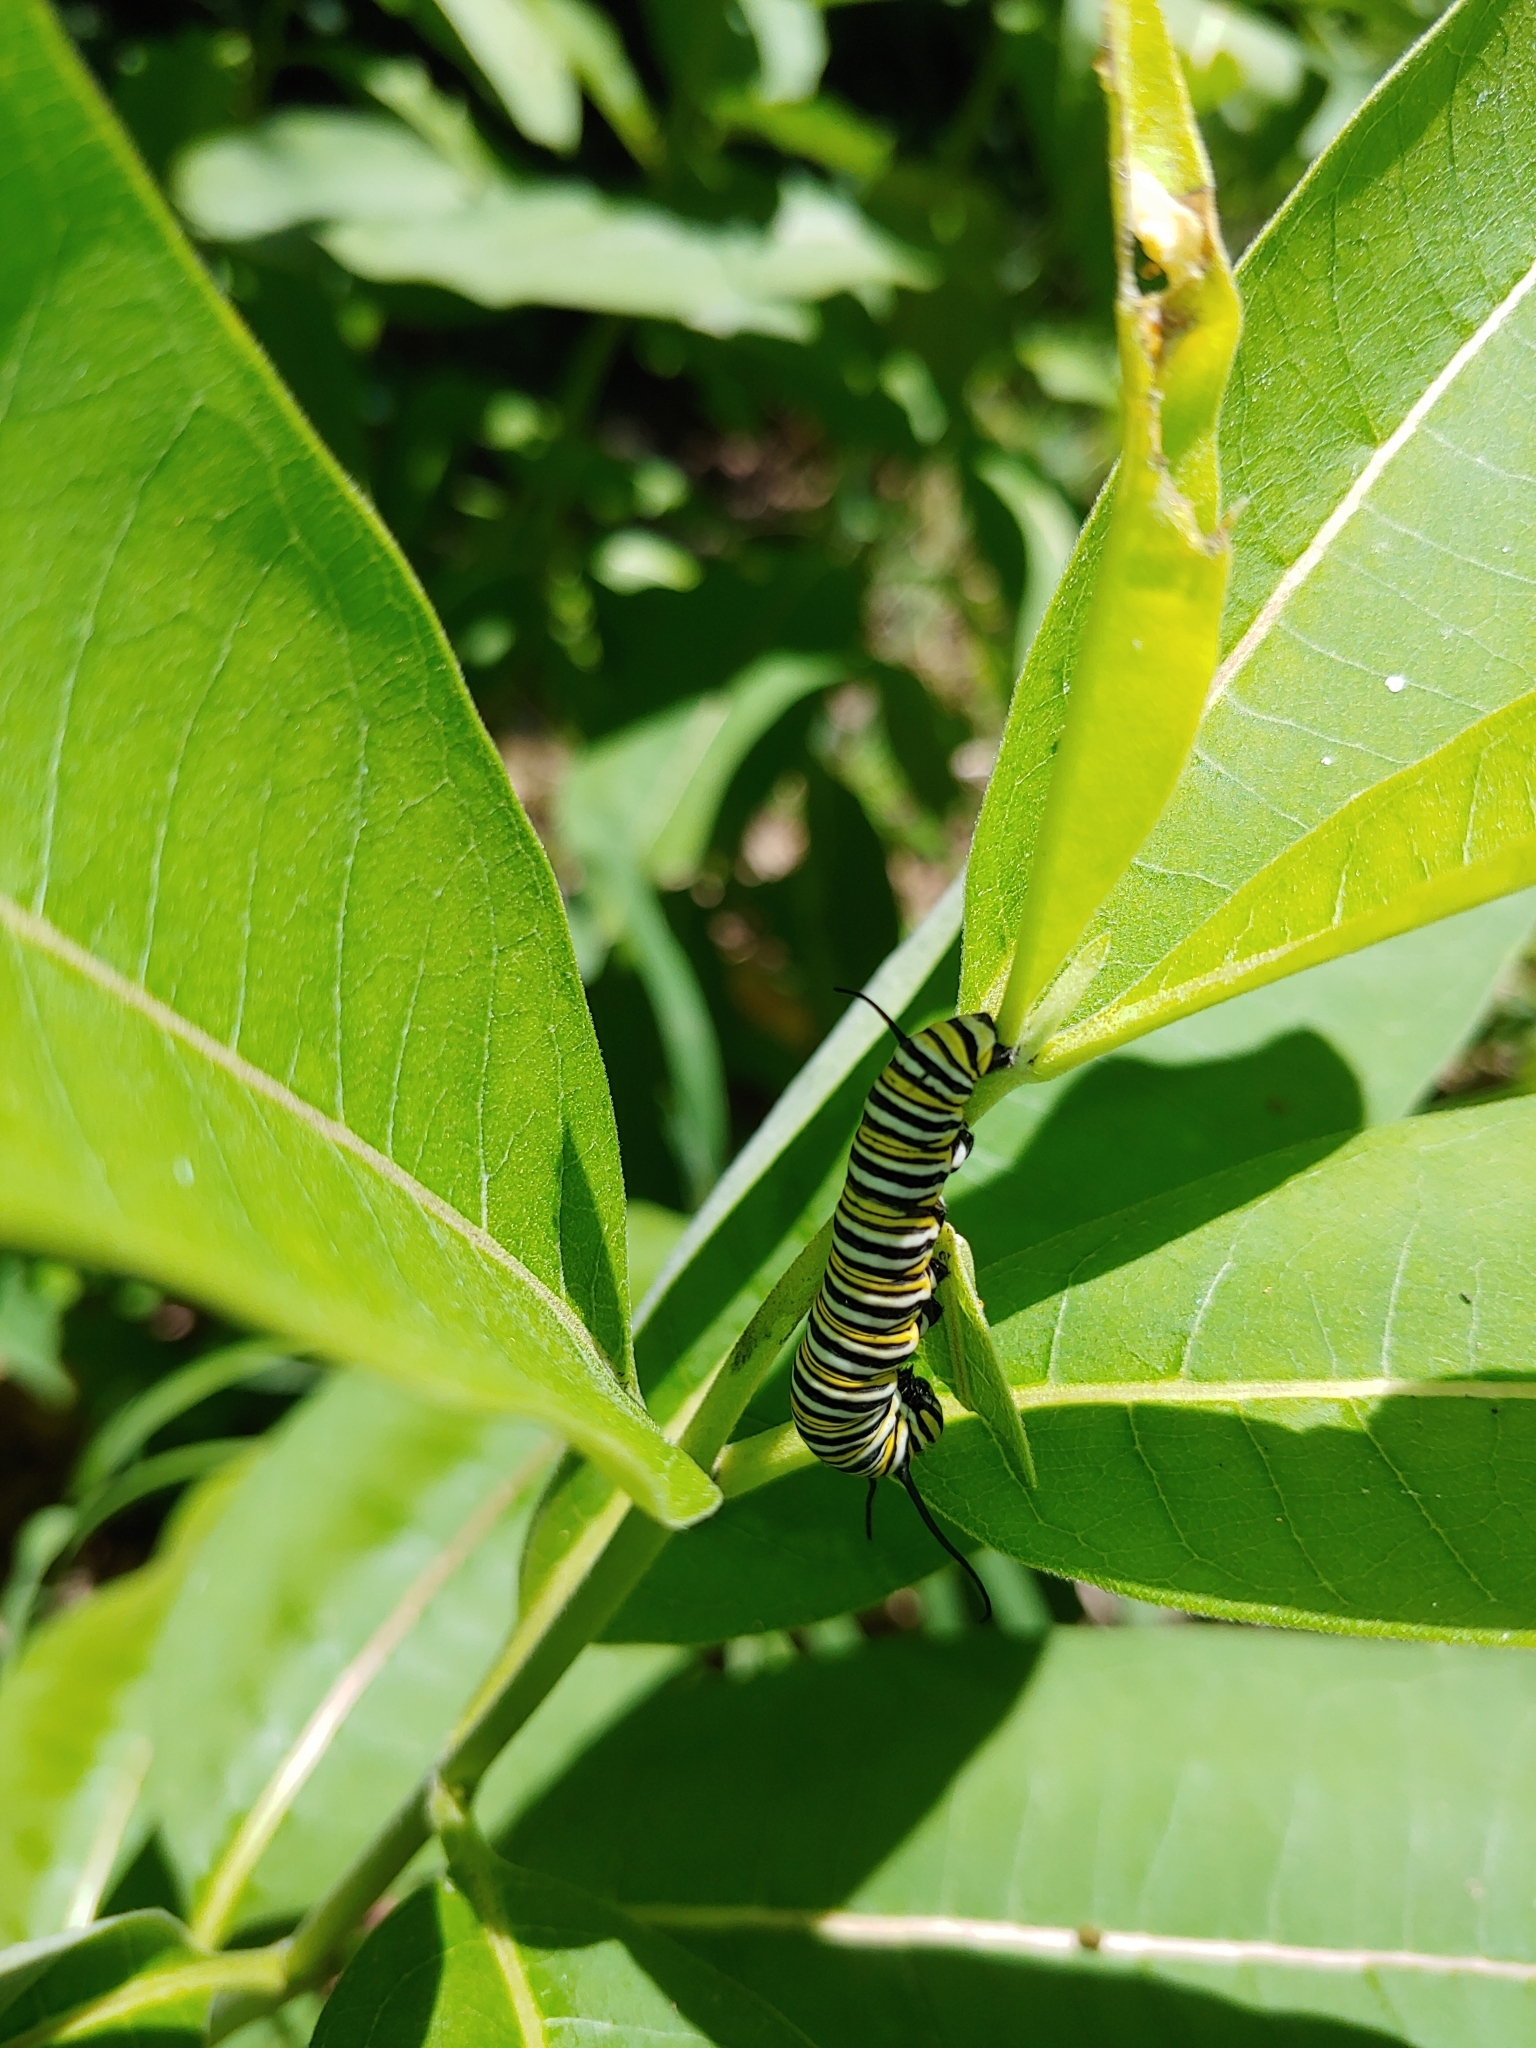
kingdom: Animalia
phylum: Arthropoda
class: Insecta
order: Lepidoptera
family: Nymphalidae
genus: Danaus
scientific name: Danaus plexippus
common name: Monarch
